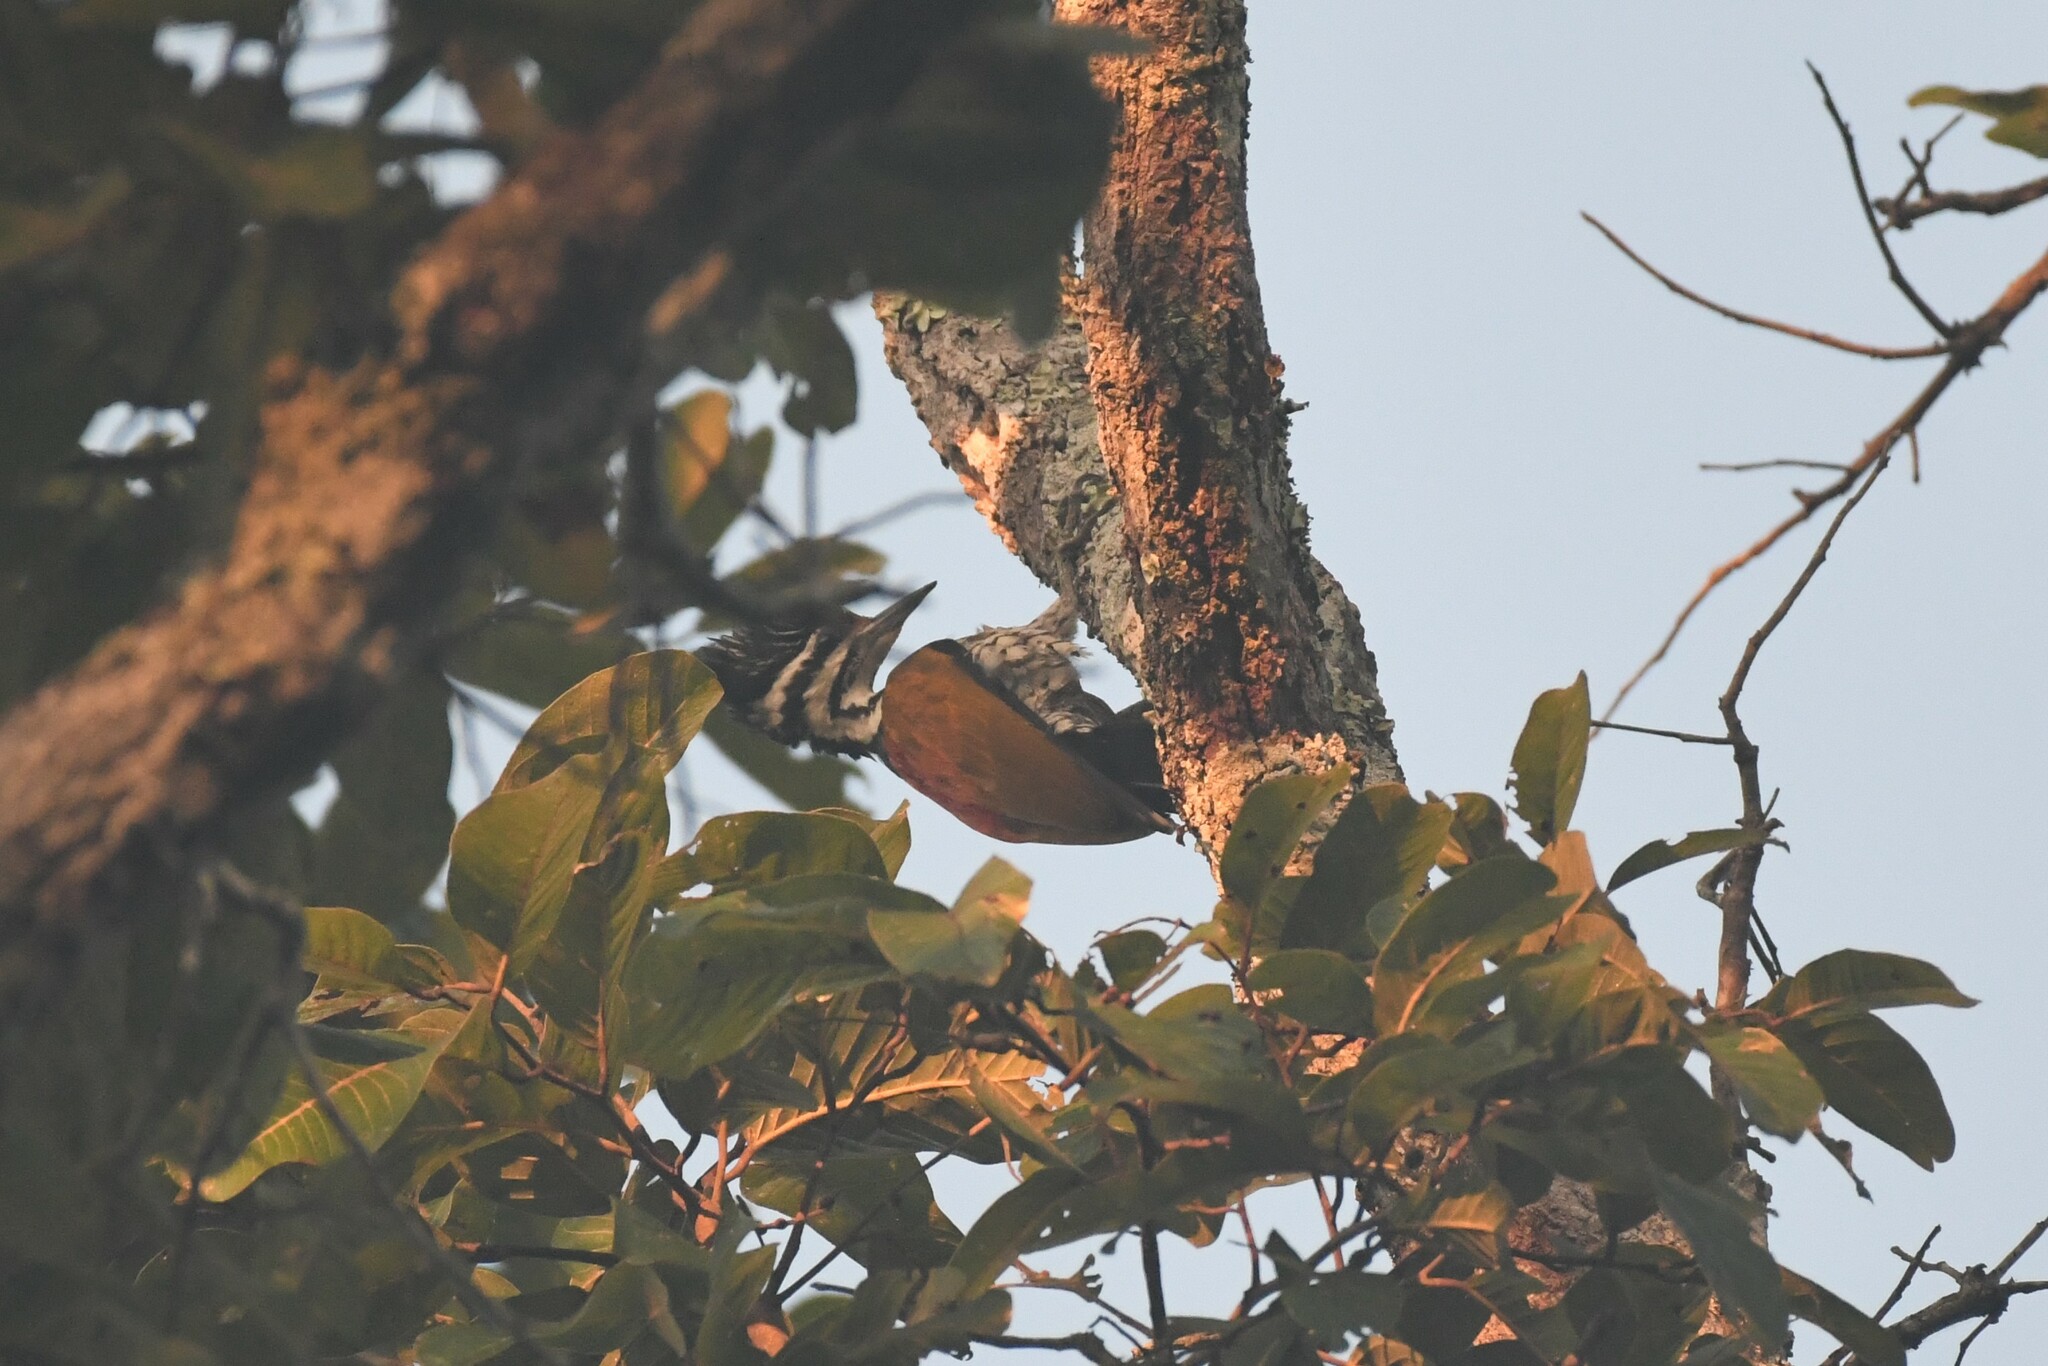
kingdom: Animalia
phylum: Chordata
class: Aves
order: Piciformes
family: Picidae
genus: Dinopium
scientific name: Dinopium javanense
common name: Common flameback
